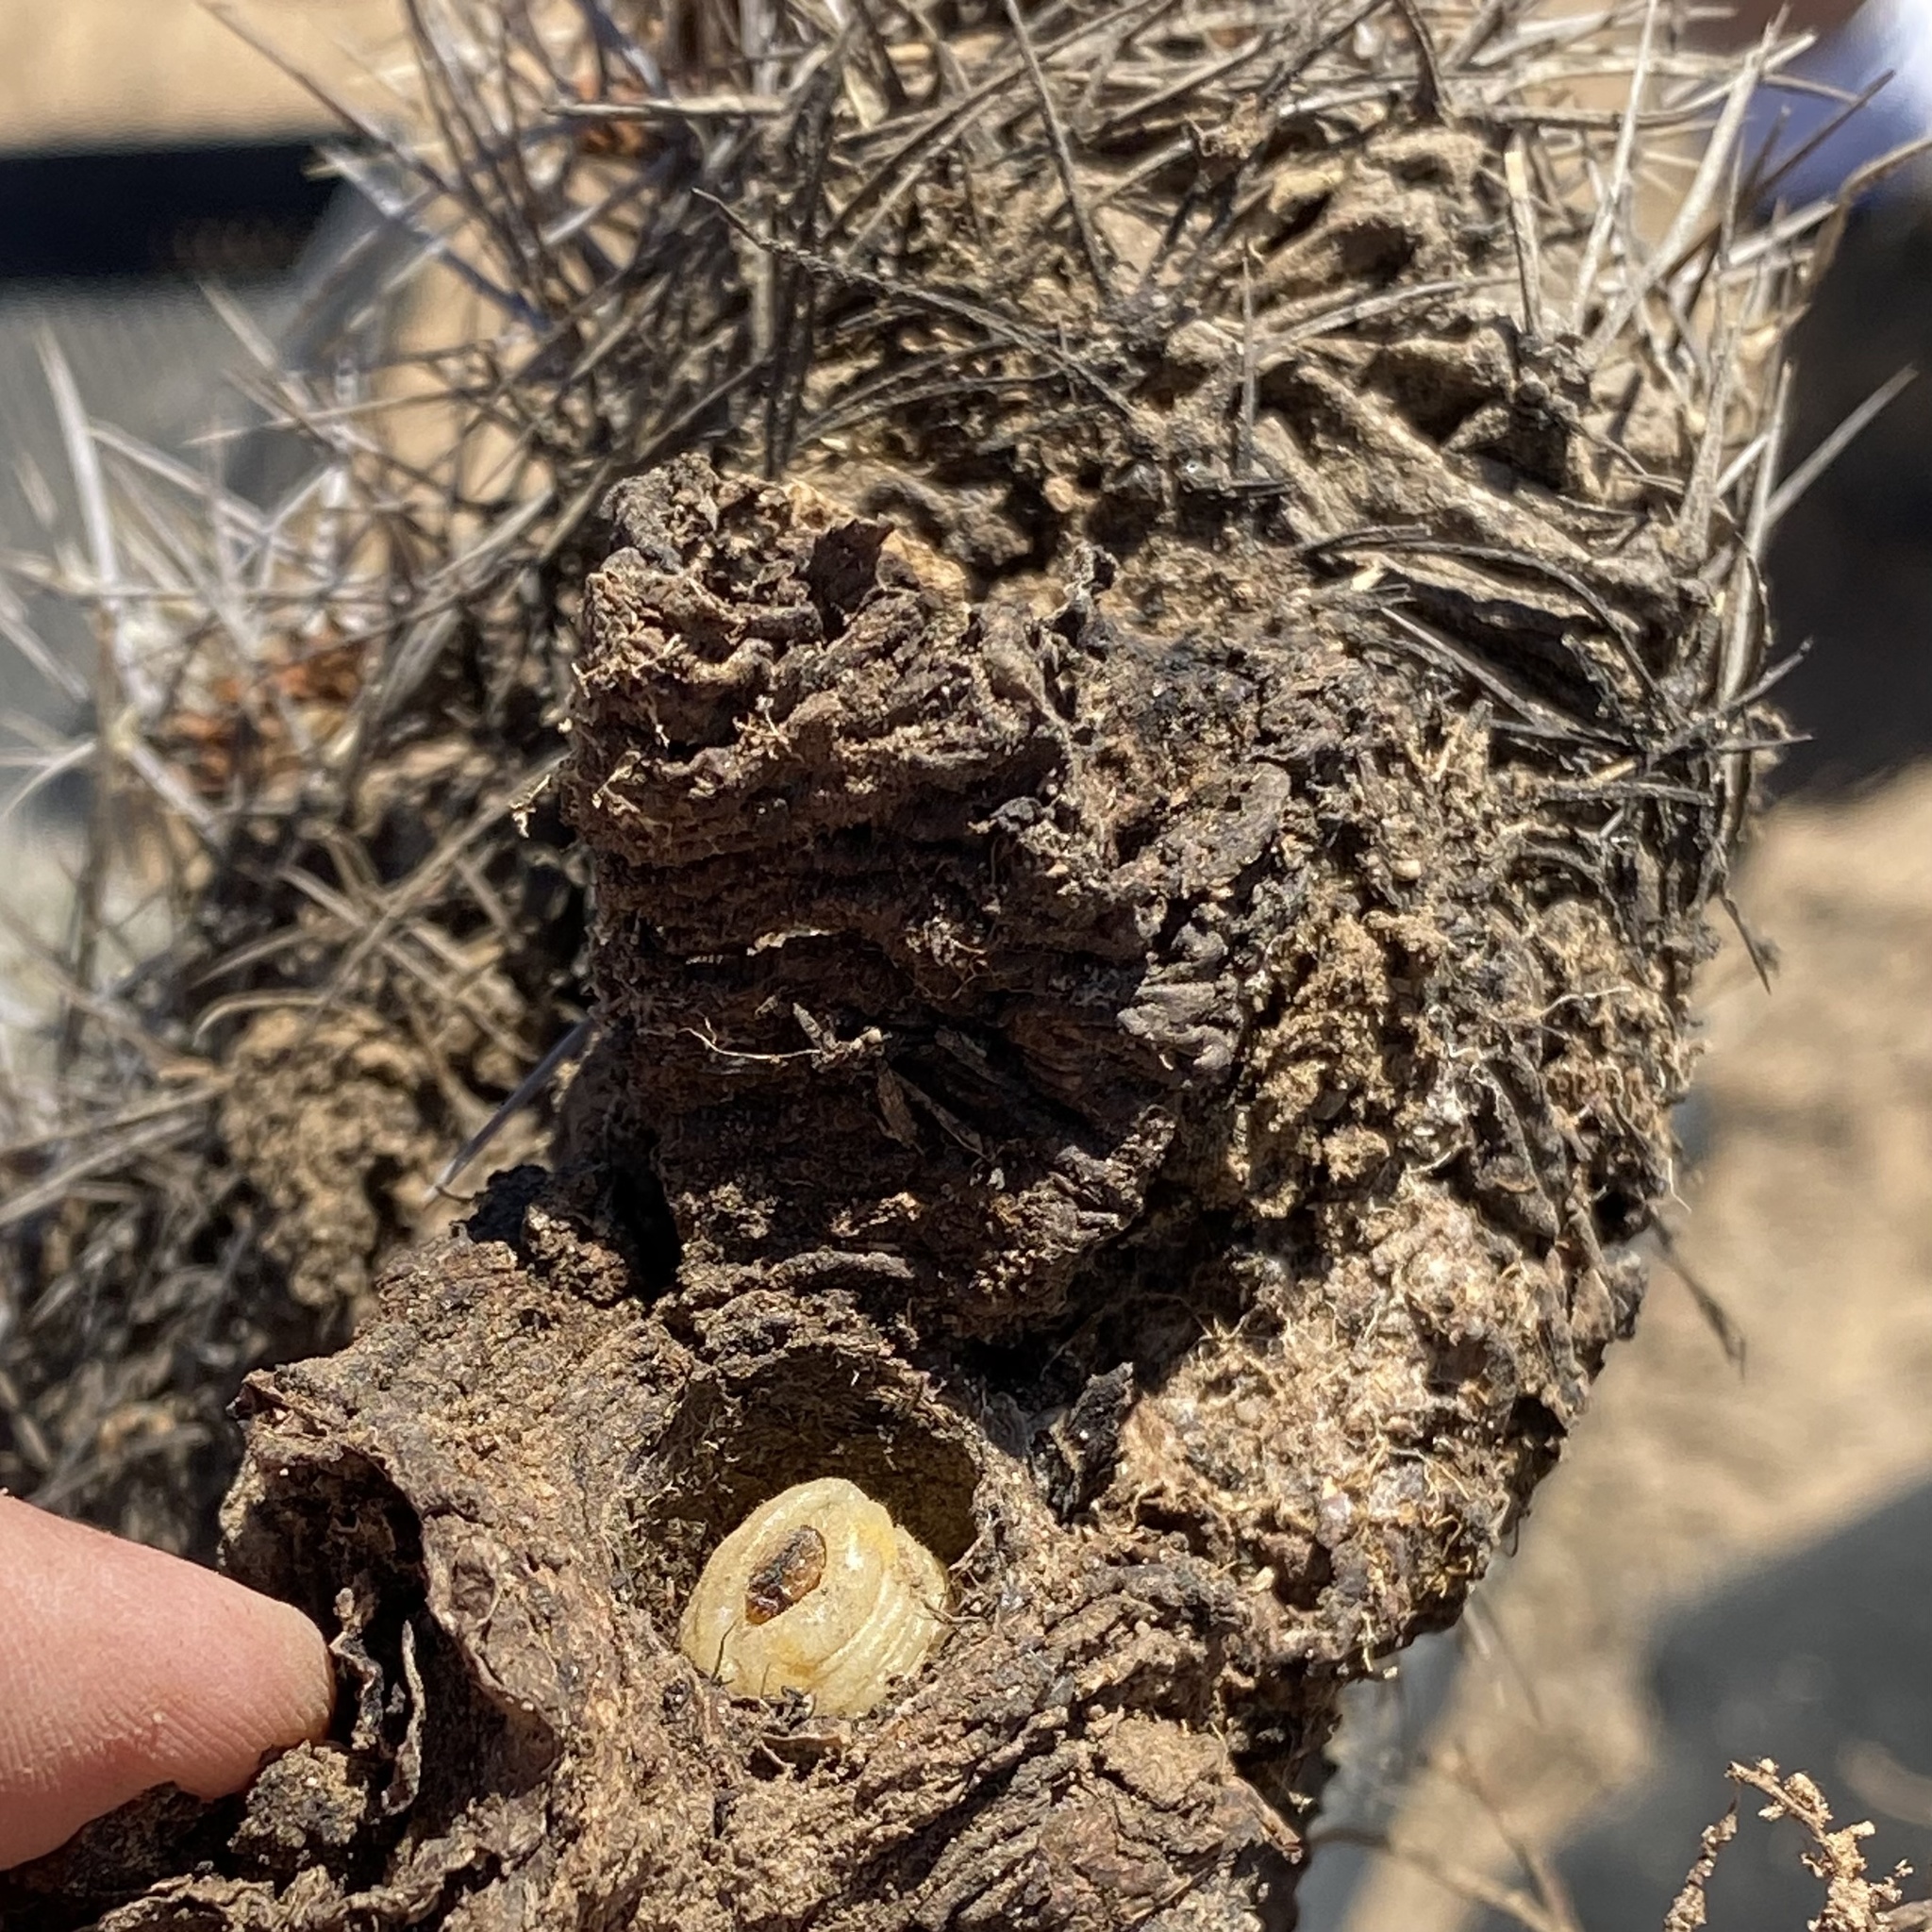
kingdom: Animalia
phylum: Arthropoda
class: Insecta
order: Coleoptera
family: Cerambycidae
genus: Moneilema
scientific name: Moneilema
